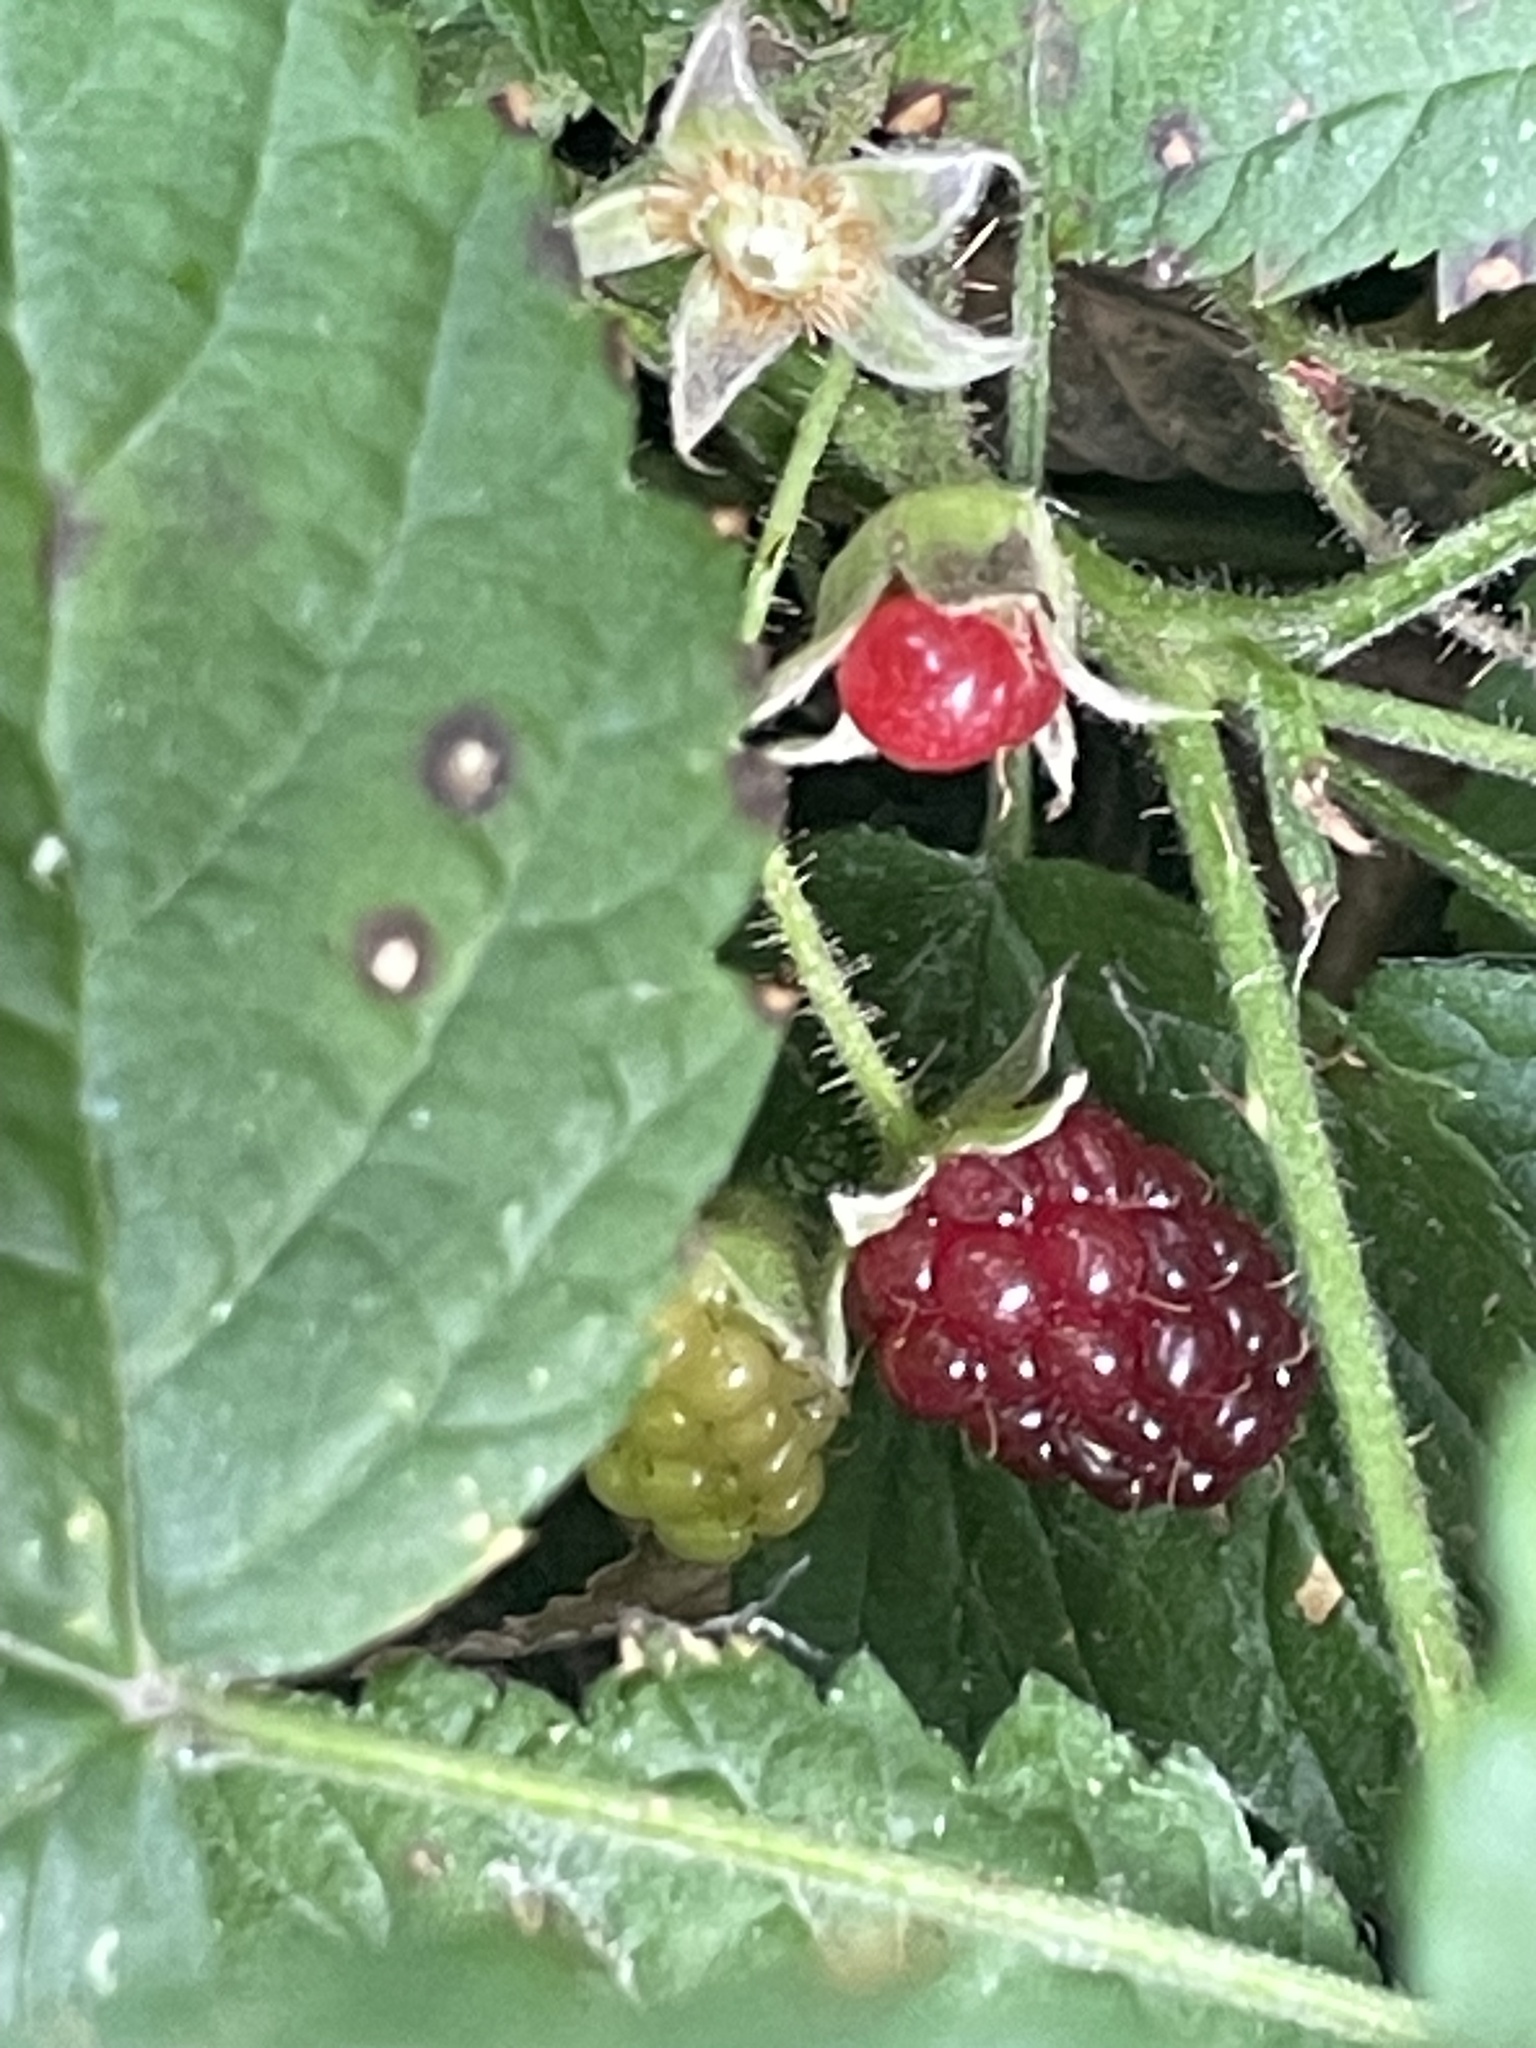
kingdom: Plantae
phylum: Tracheophyta
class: Magnoliopsida
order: Rosales
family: Rosaceae
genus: Rubus
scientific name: Rubus ursinus
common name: Pacific blackberry
